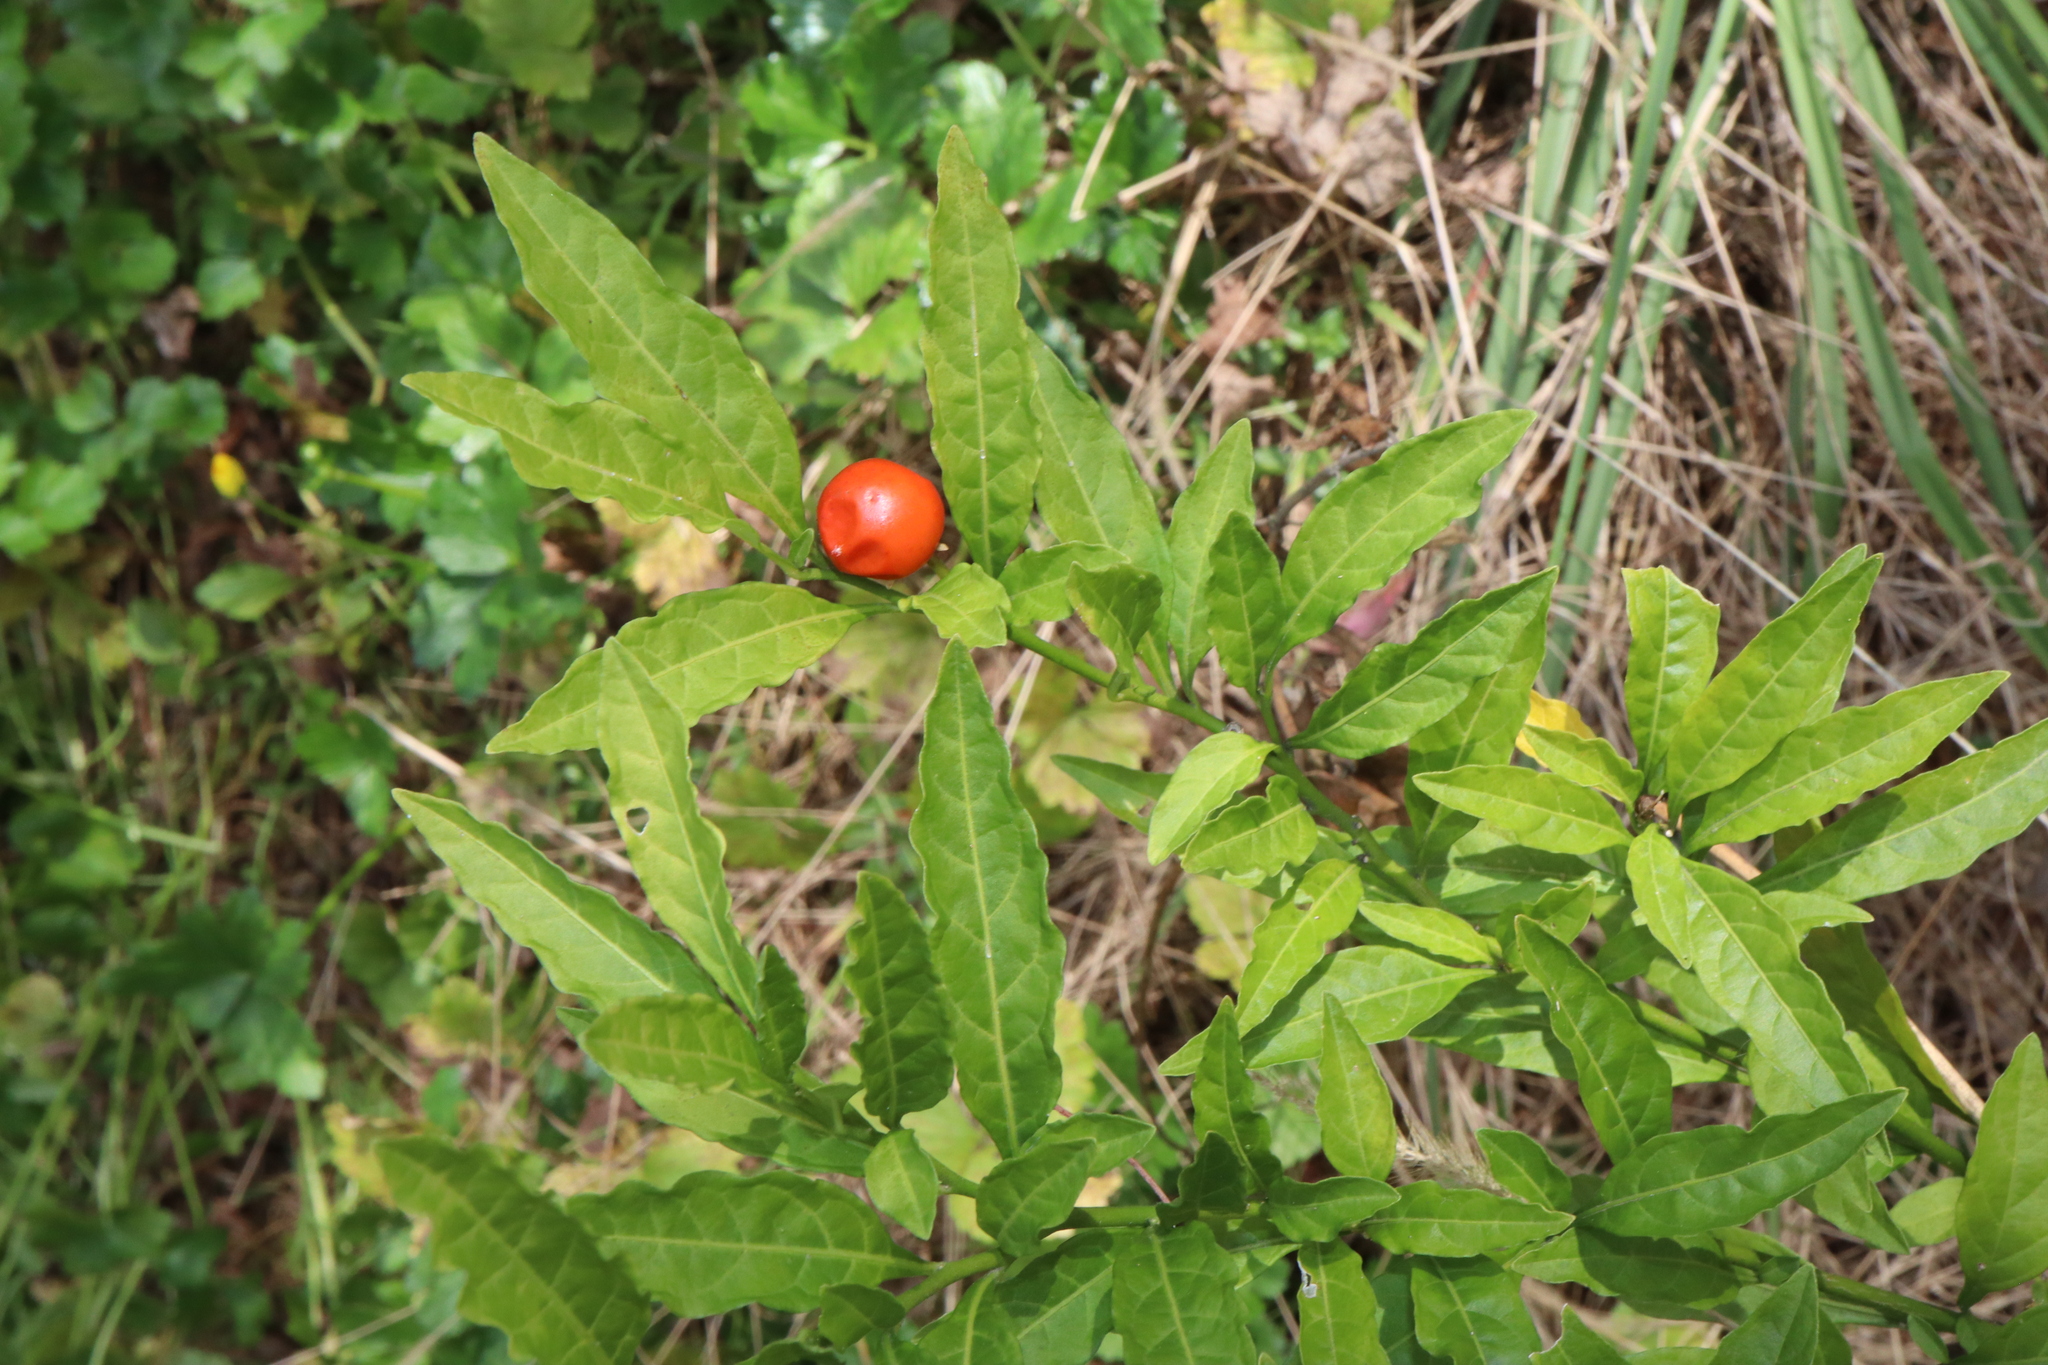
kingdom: Plantae
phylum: Tracheophyta
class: Magnoliopsida
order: Solanales
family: Solanaceae
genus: Solanum
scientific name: Solanum pseudocapsicum
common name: Jerusalem cherry
